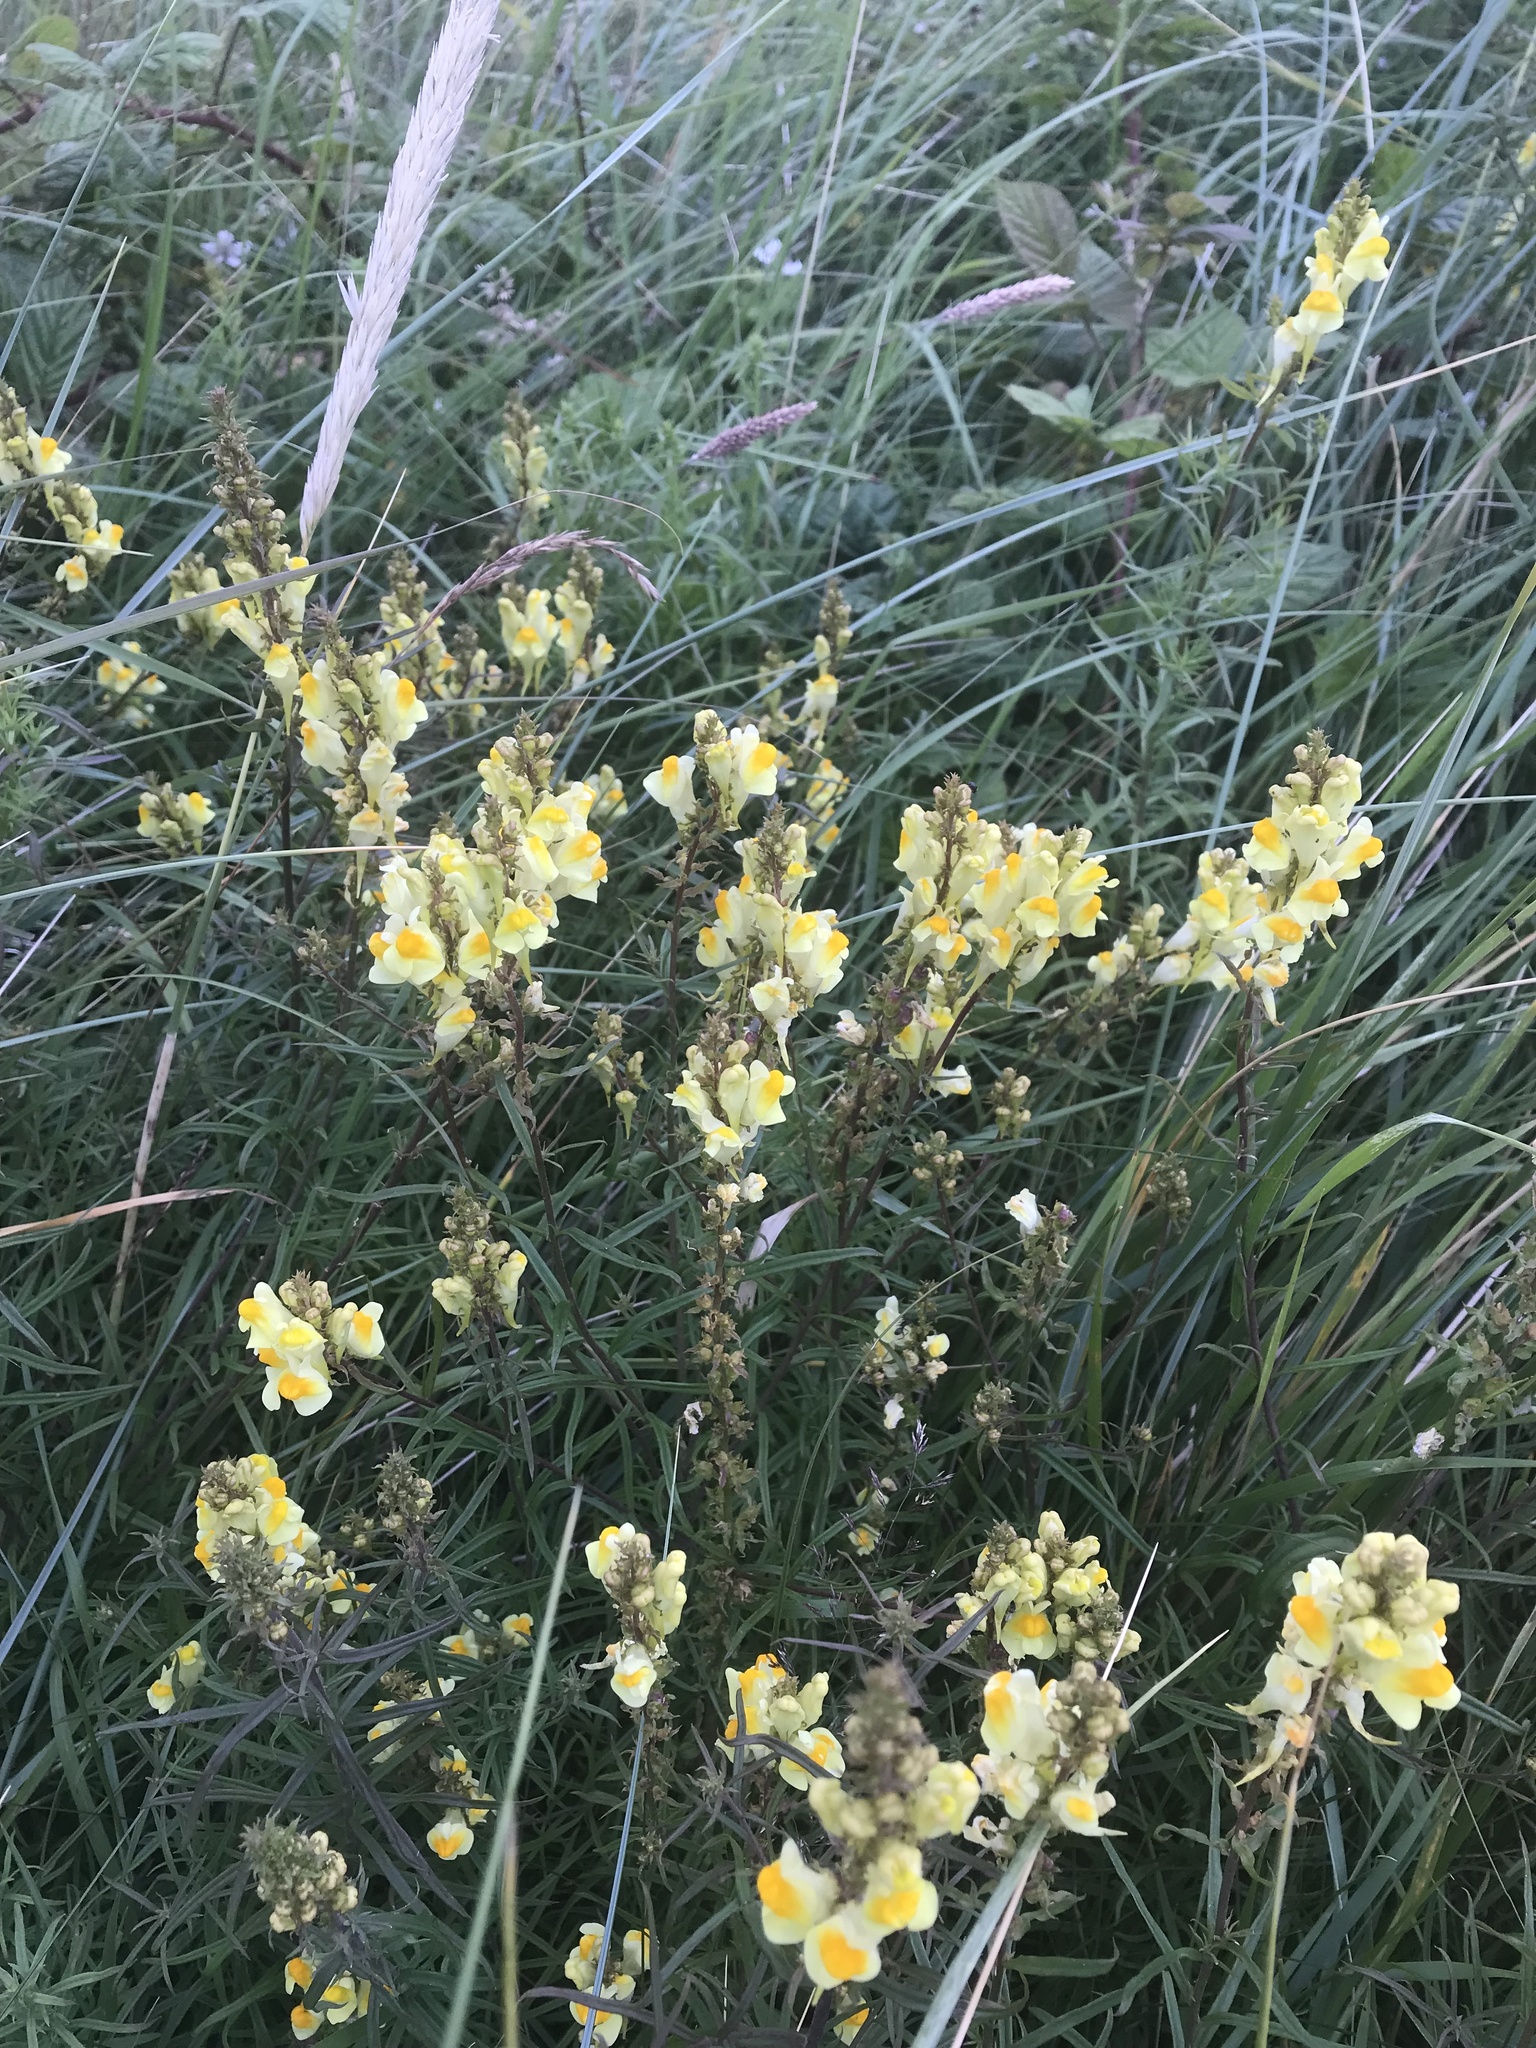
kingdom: Plantae
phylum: Tracheophyta
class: Magnoliopsida
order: Lamiales
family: Plantaginaceae
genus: Linaria
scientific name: Linaria vulgaris
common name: Butter and eggs
